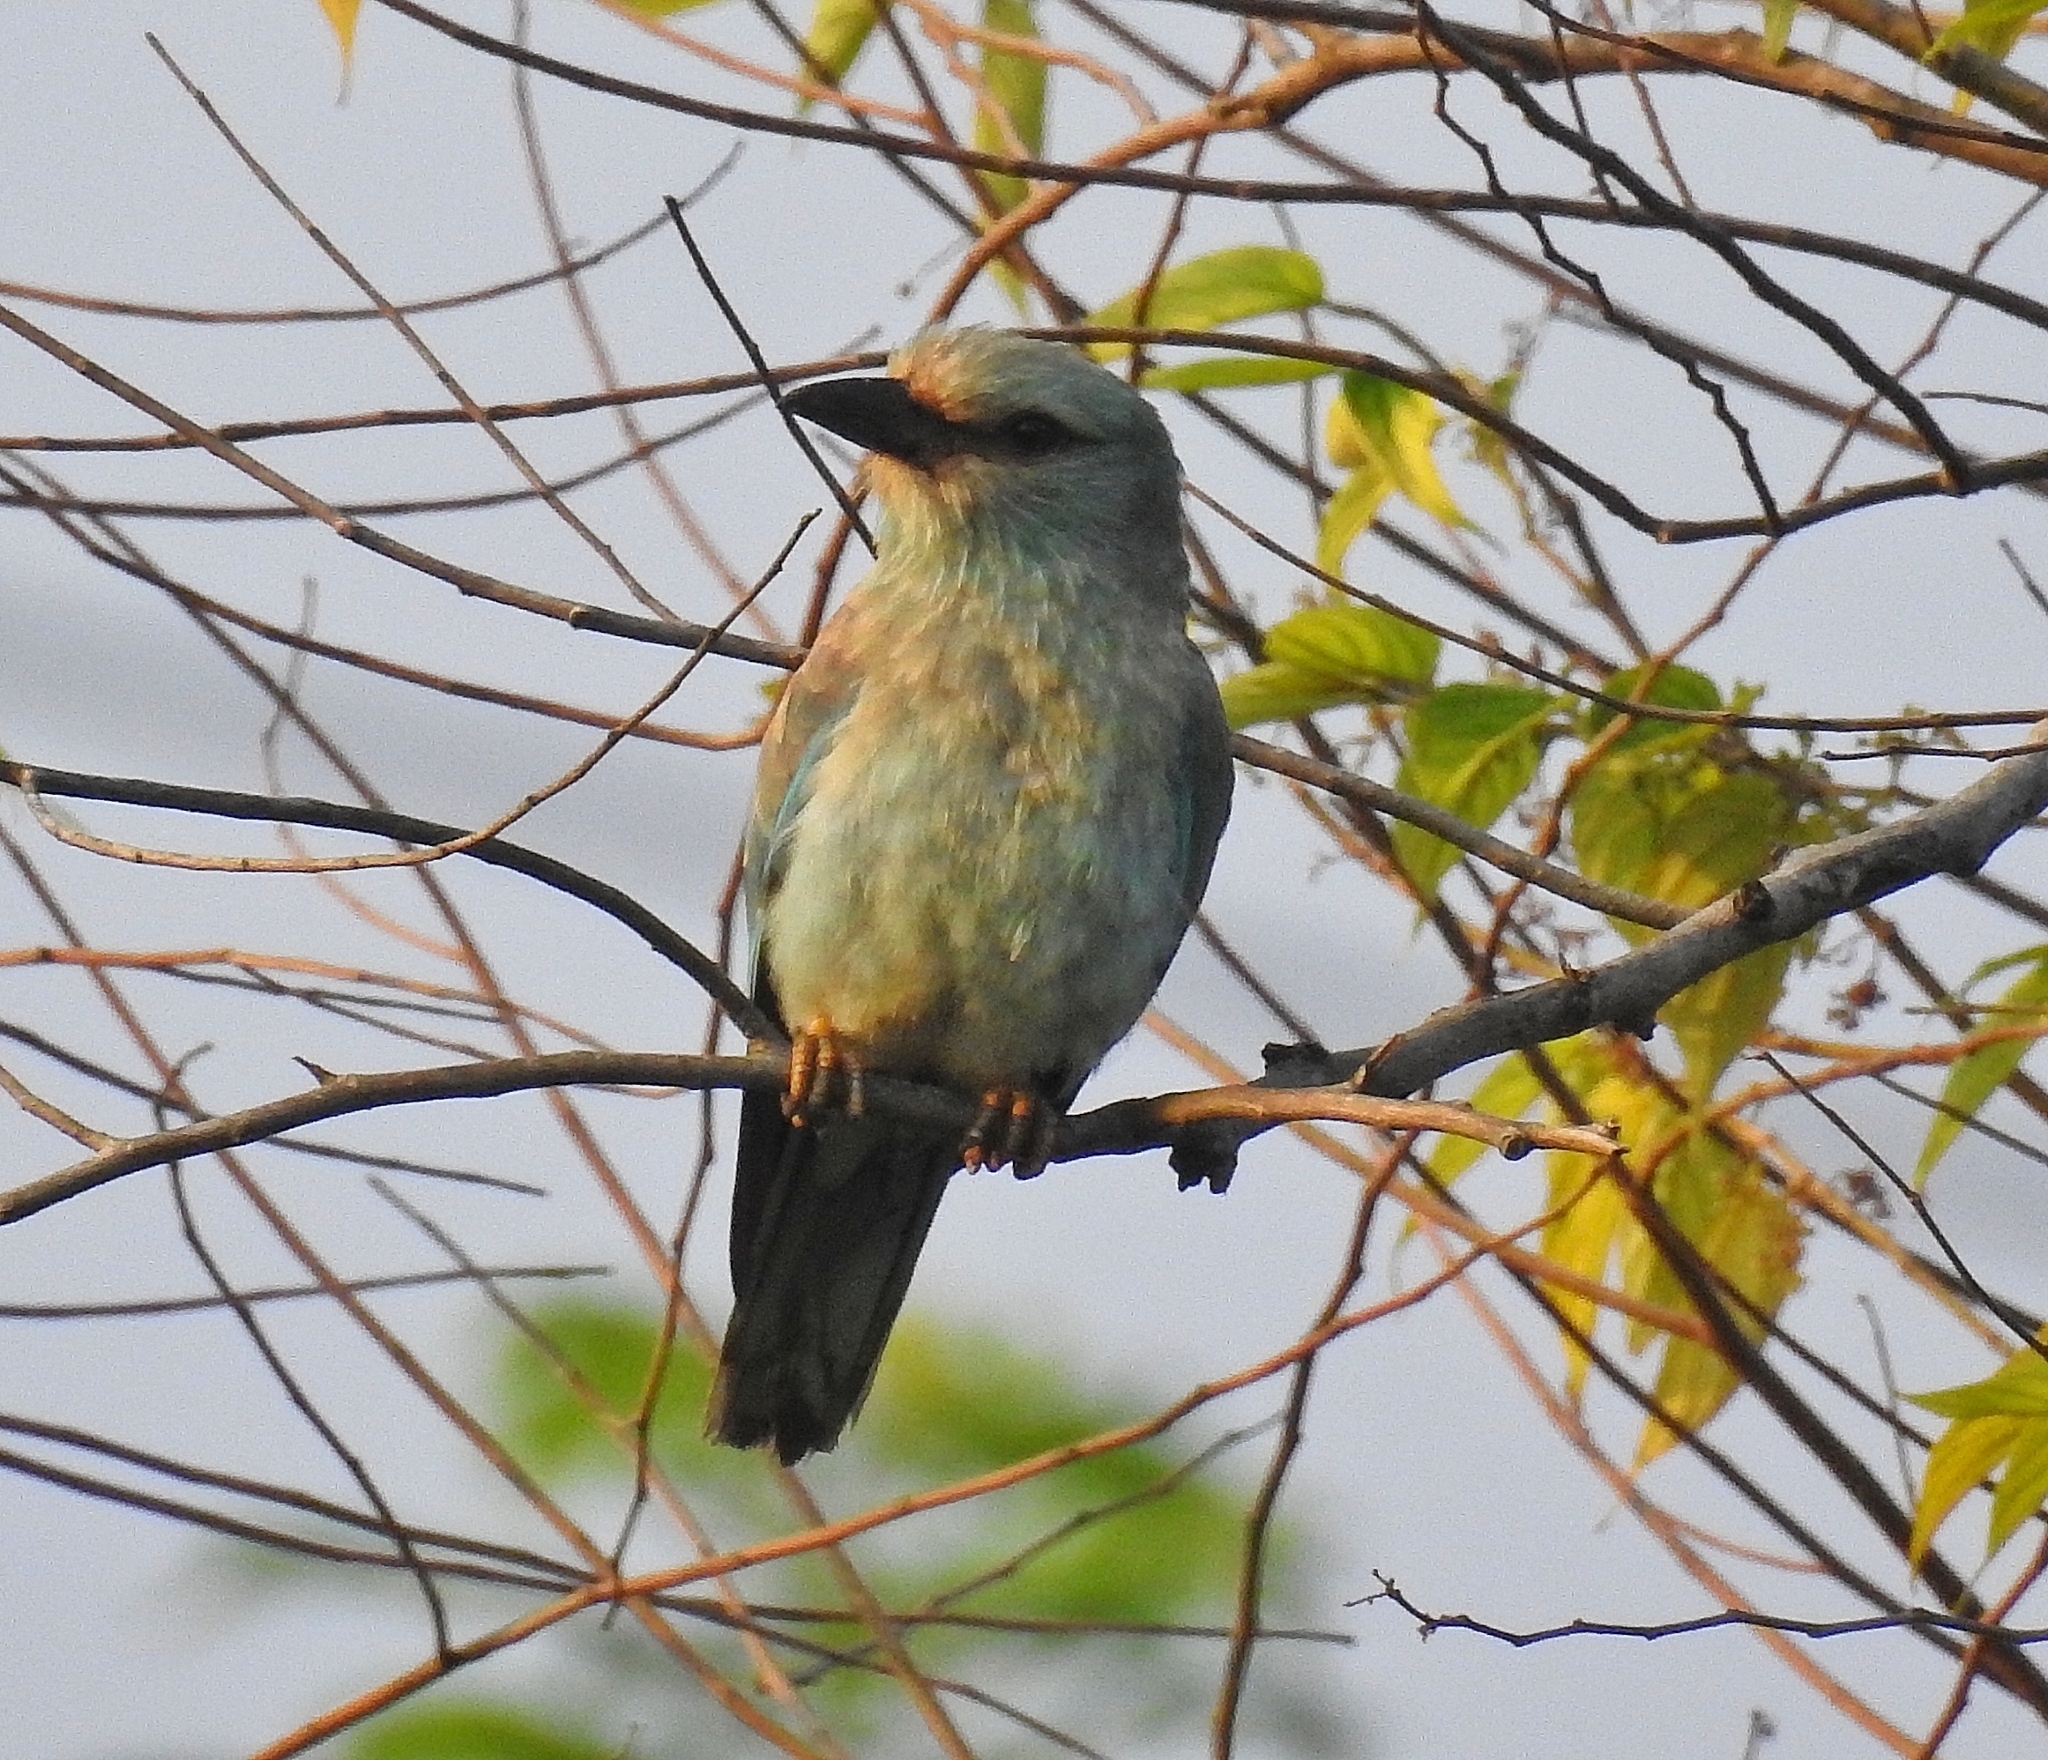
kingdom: Animalia
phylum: Chordata
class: Aves
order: Coraciiformes
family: Coraciidae
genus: Coracias
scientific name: Coracias garrulus
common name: European roller
